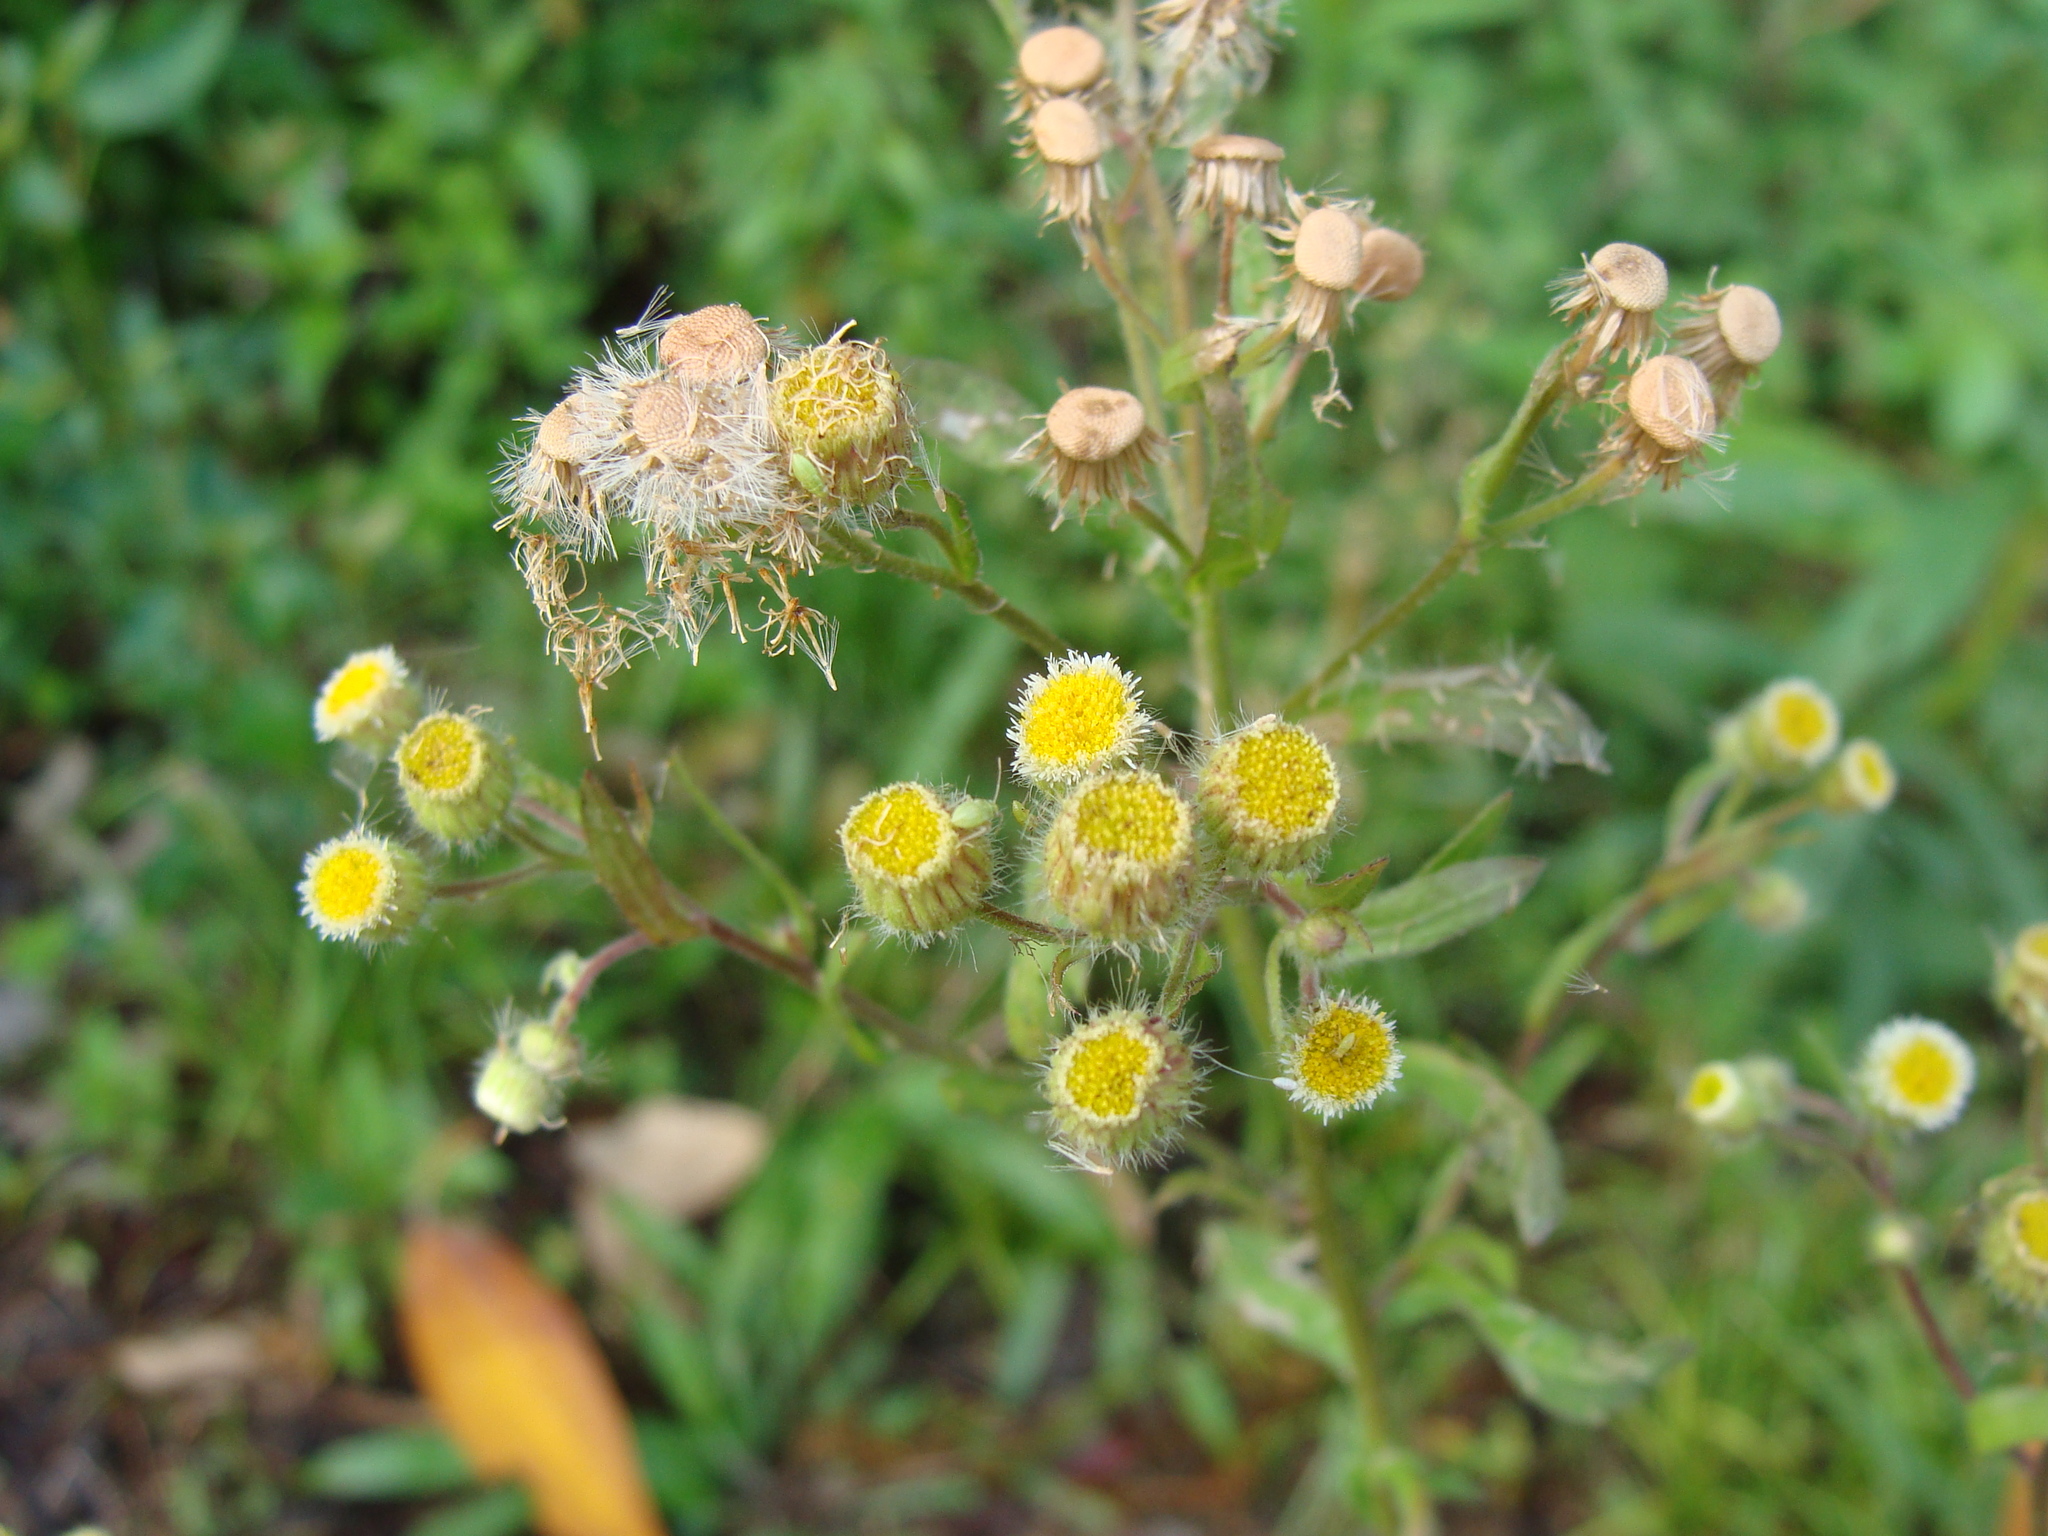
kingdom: Plantae
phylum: Tracheophyta
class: Magnoliopsida
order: Asterales
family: Asteraceae
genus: Erigeron
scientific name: Erigeron laevigatus
